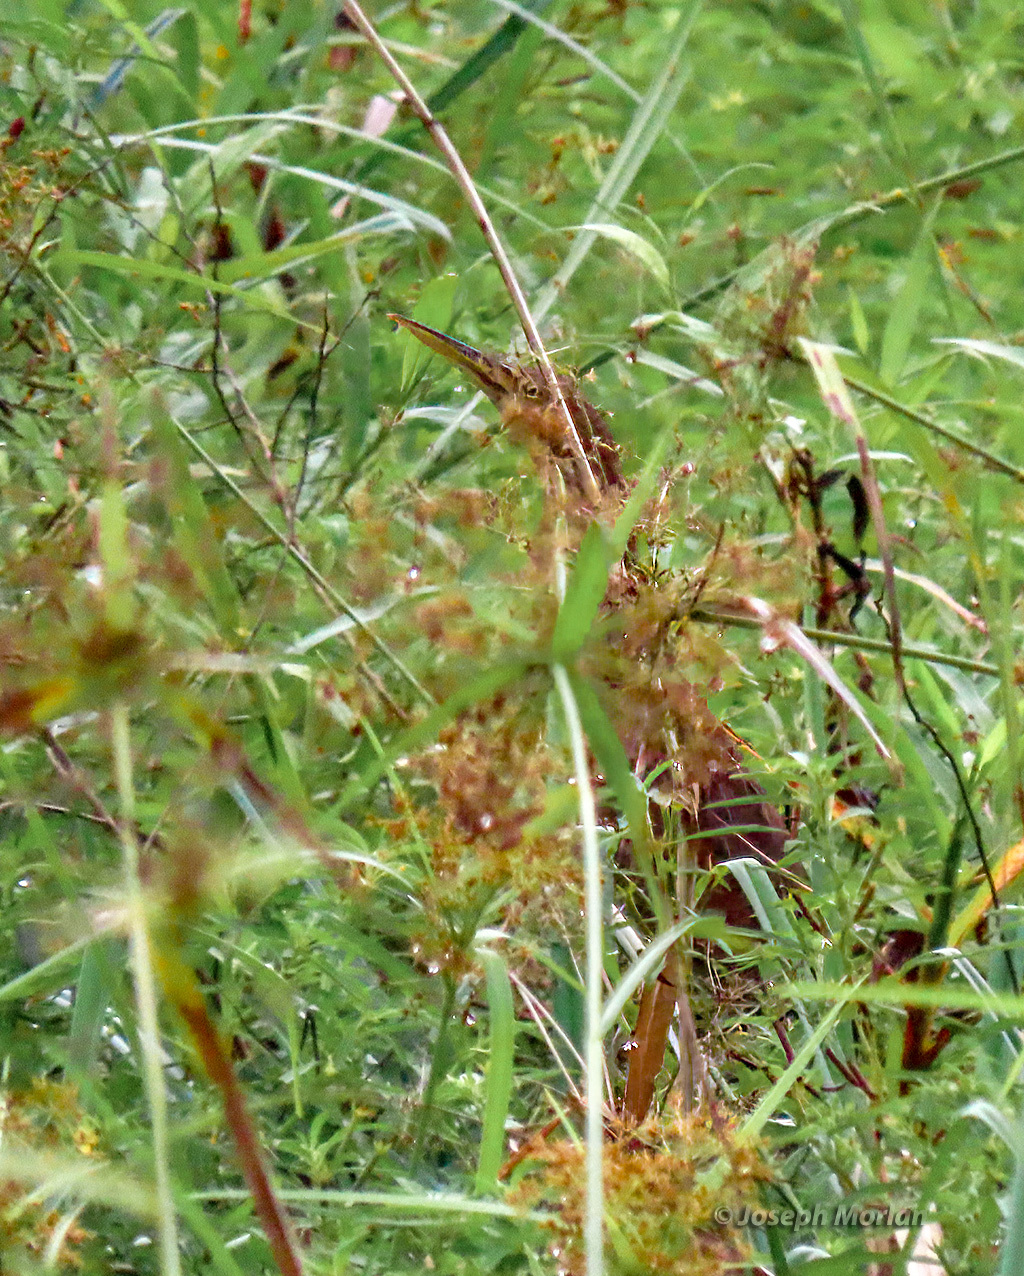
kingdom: Animalia
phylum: Chordata
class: Aves
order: Pelecaniformes
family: Ardeidae
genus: Ixobrychus
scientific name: Ixobrychus cinnamomeus
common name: Cinnamon bittern
